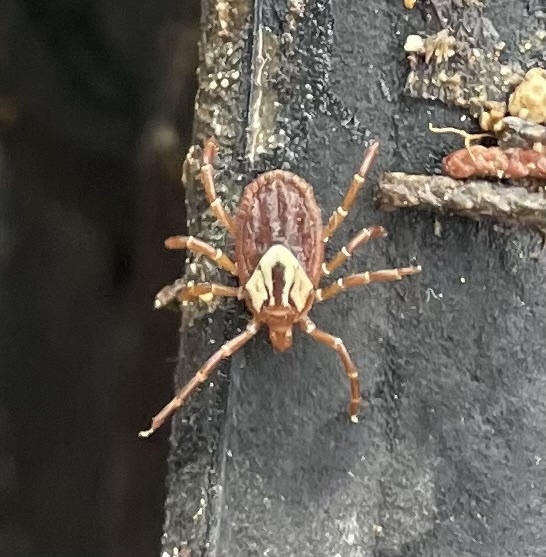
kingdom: Animalia
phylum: Arthropoda
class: Arachnida
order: Ixodida
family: Ixodidae
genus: Amblyomma
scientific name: Amblyomma maculatum
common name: Gulf coast tick
